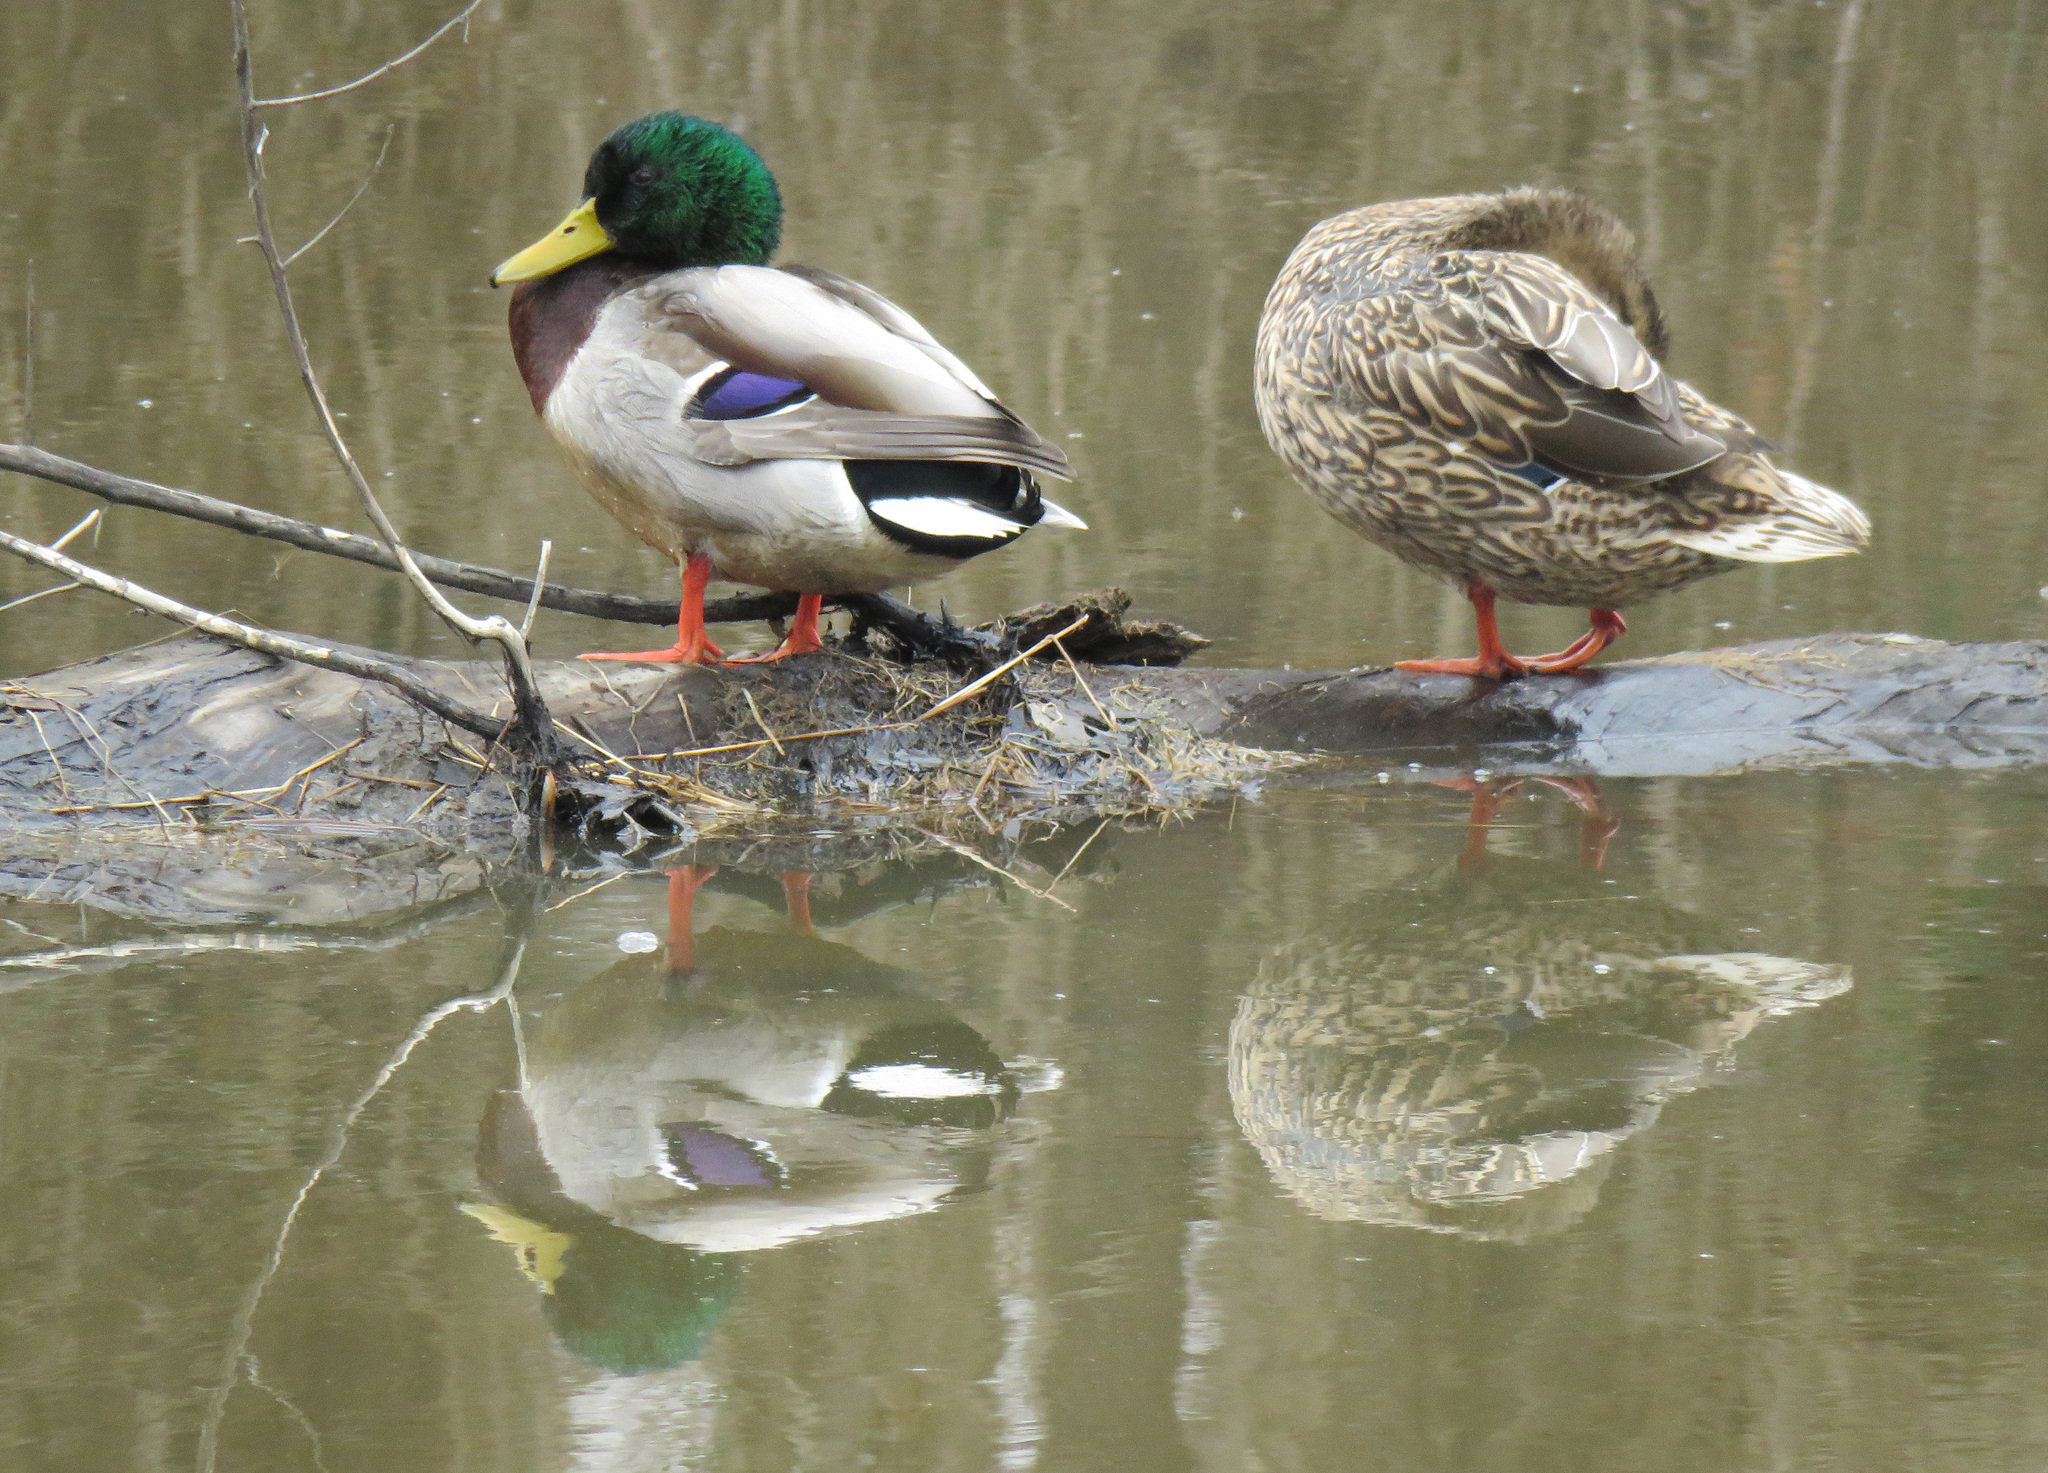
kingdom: Animalia
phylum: Chordata
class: Aves
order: Anseriformes
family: Anatidae
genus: Anas
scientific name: Anas platyrhynchos
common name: Mallard
